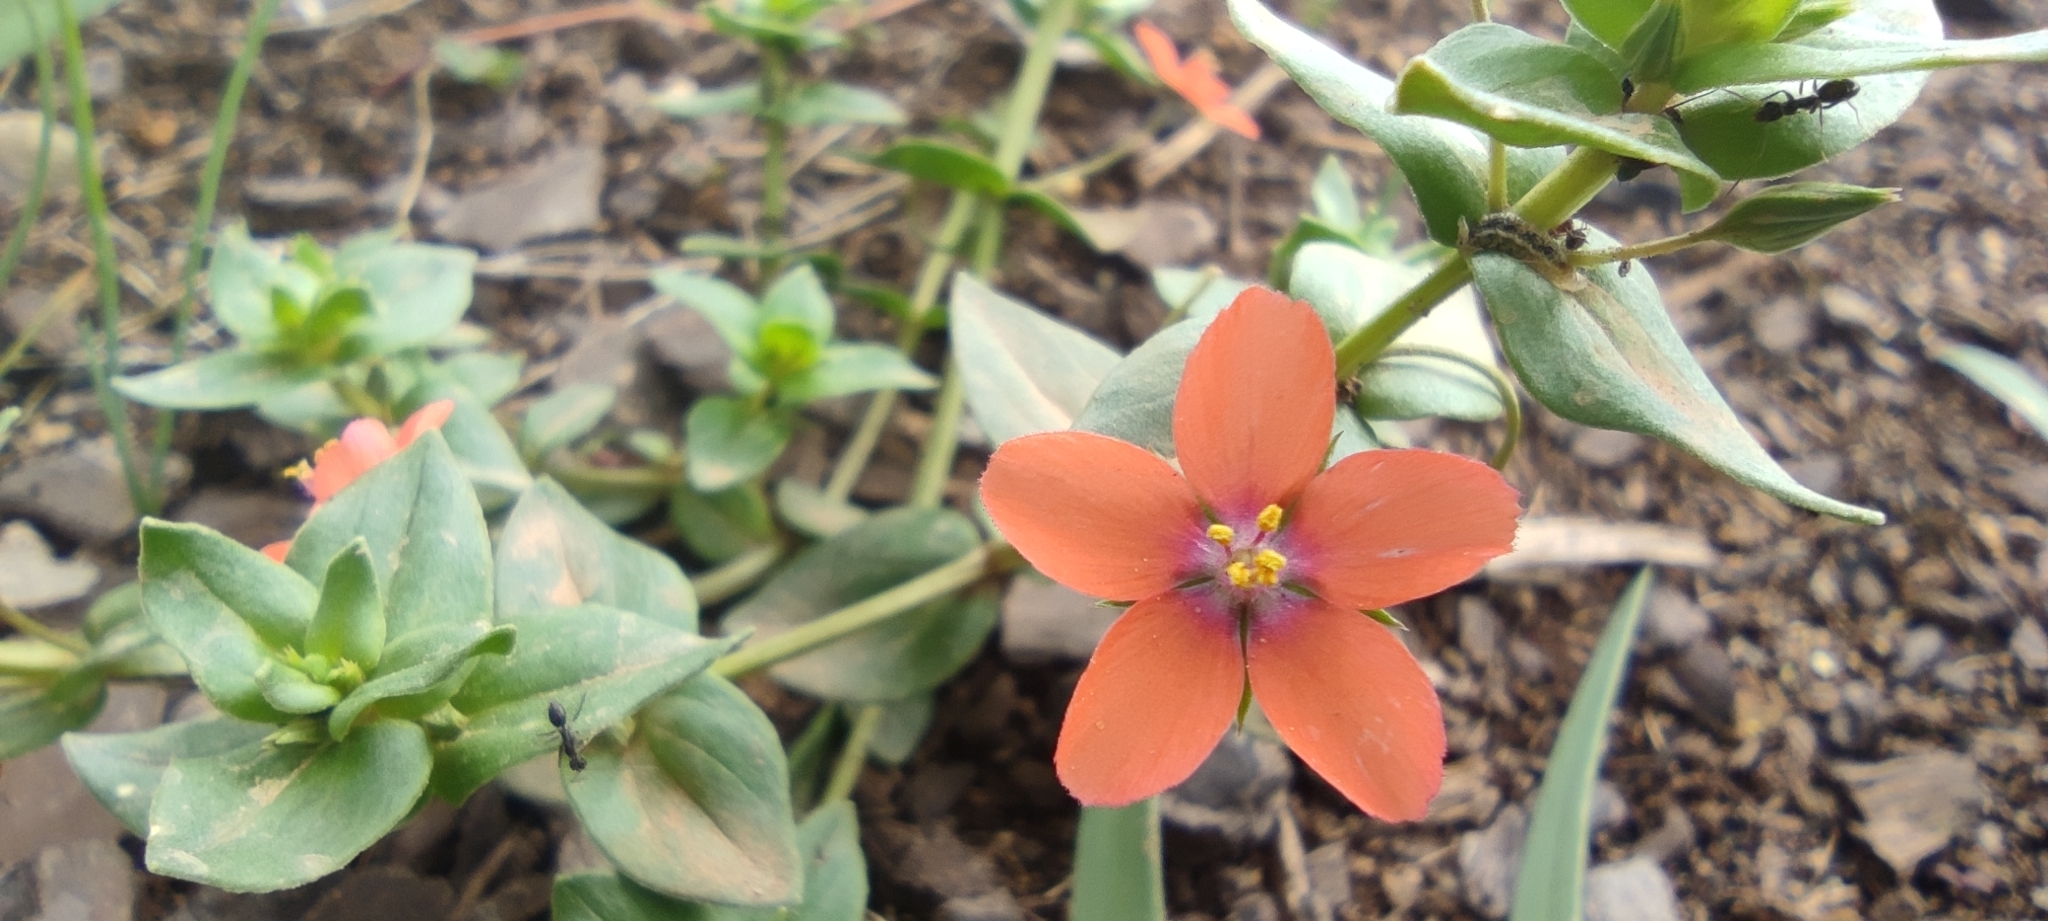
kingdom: Plantae
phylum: Tracheophyta
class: Magnoliopsida
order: Ericales
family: Primulaceae
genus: Lysimachia
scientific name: Lysimachia arvensis
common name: Scarlet pimpernel
